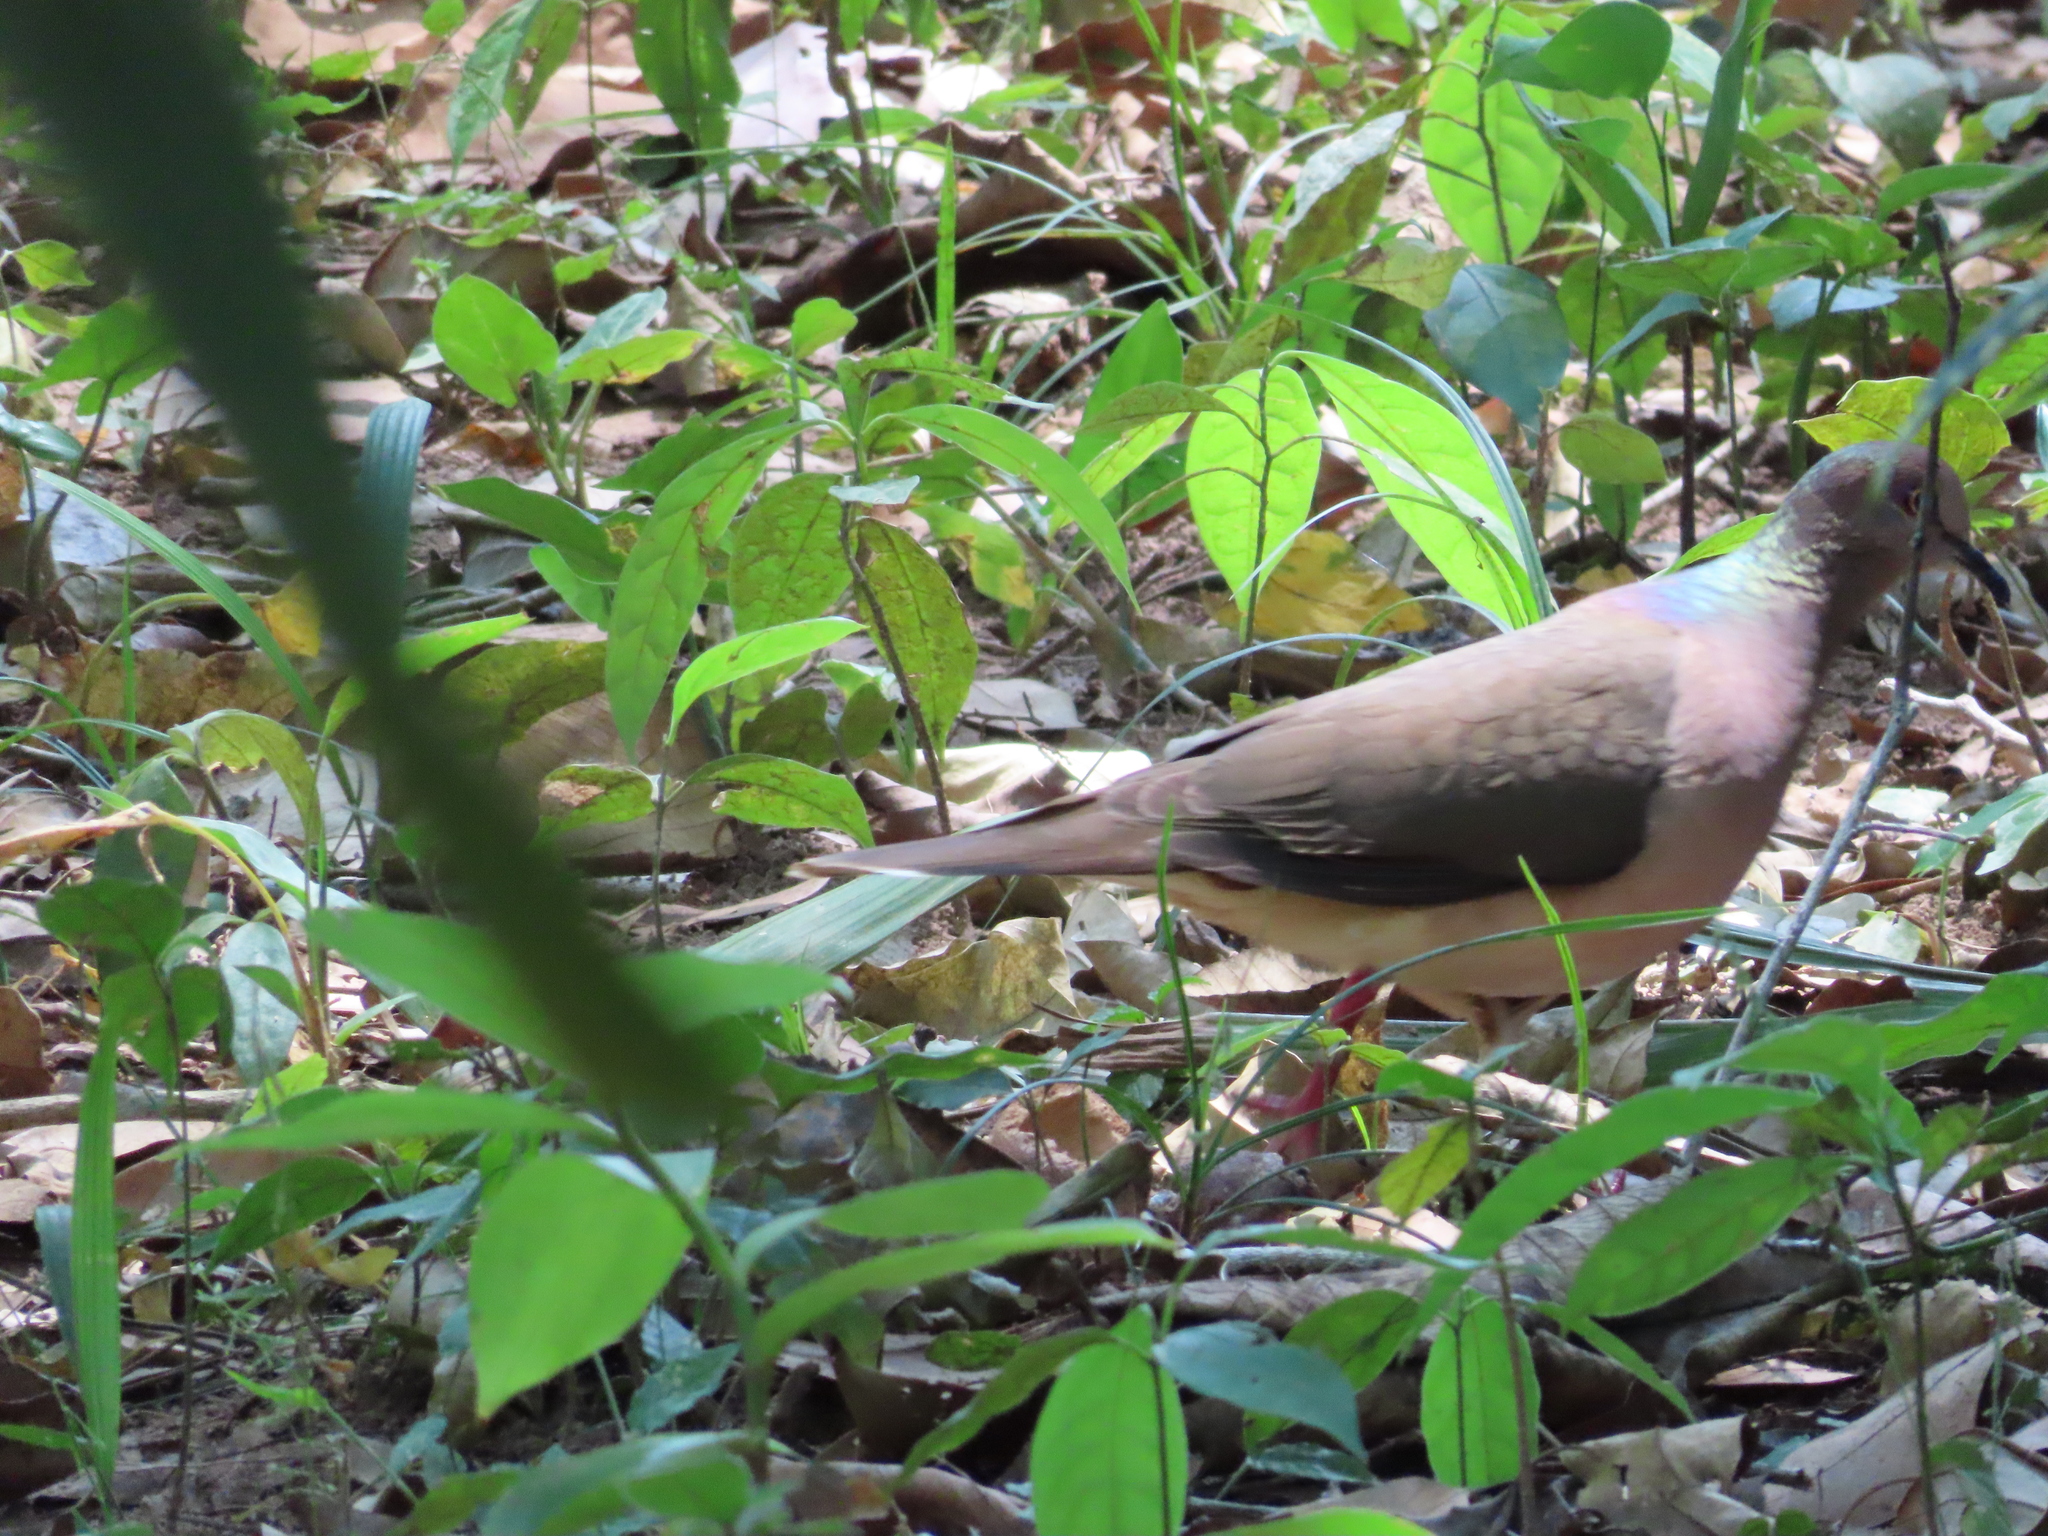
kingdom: Animalia
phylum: Chordata
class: Aves
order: Columbiformes
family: Columbidae
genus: Leptotila
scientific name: Leptotila verreauxi
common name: White-tipped dove
